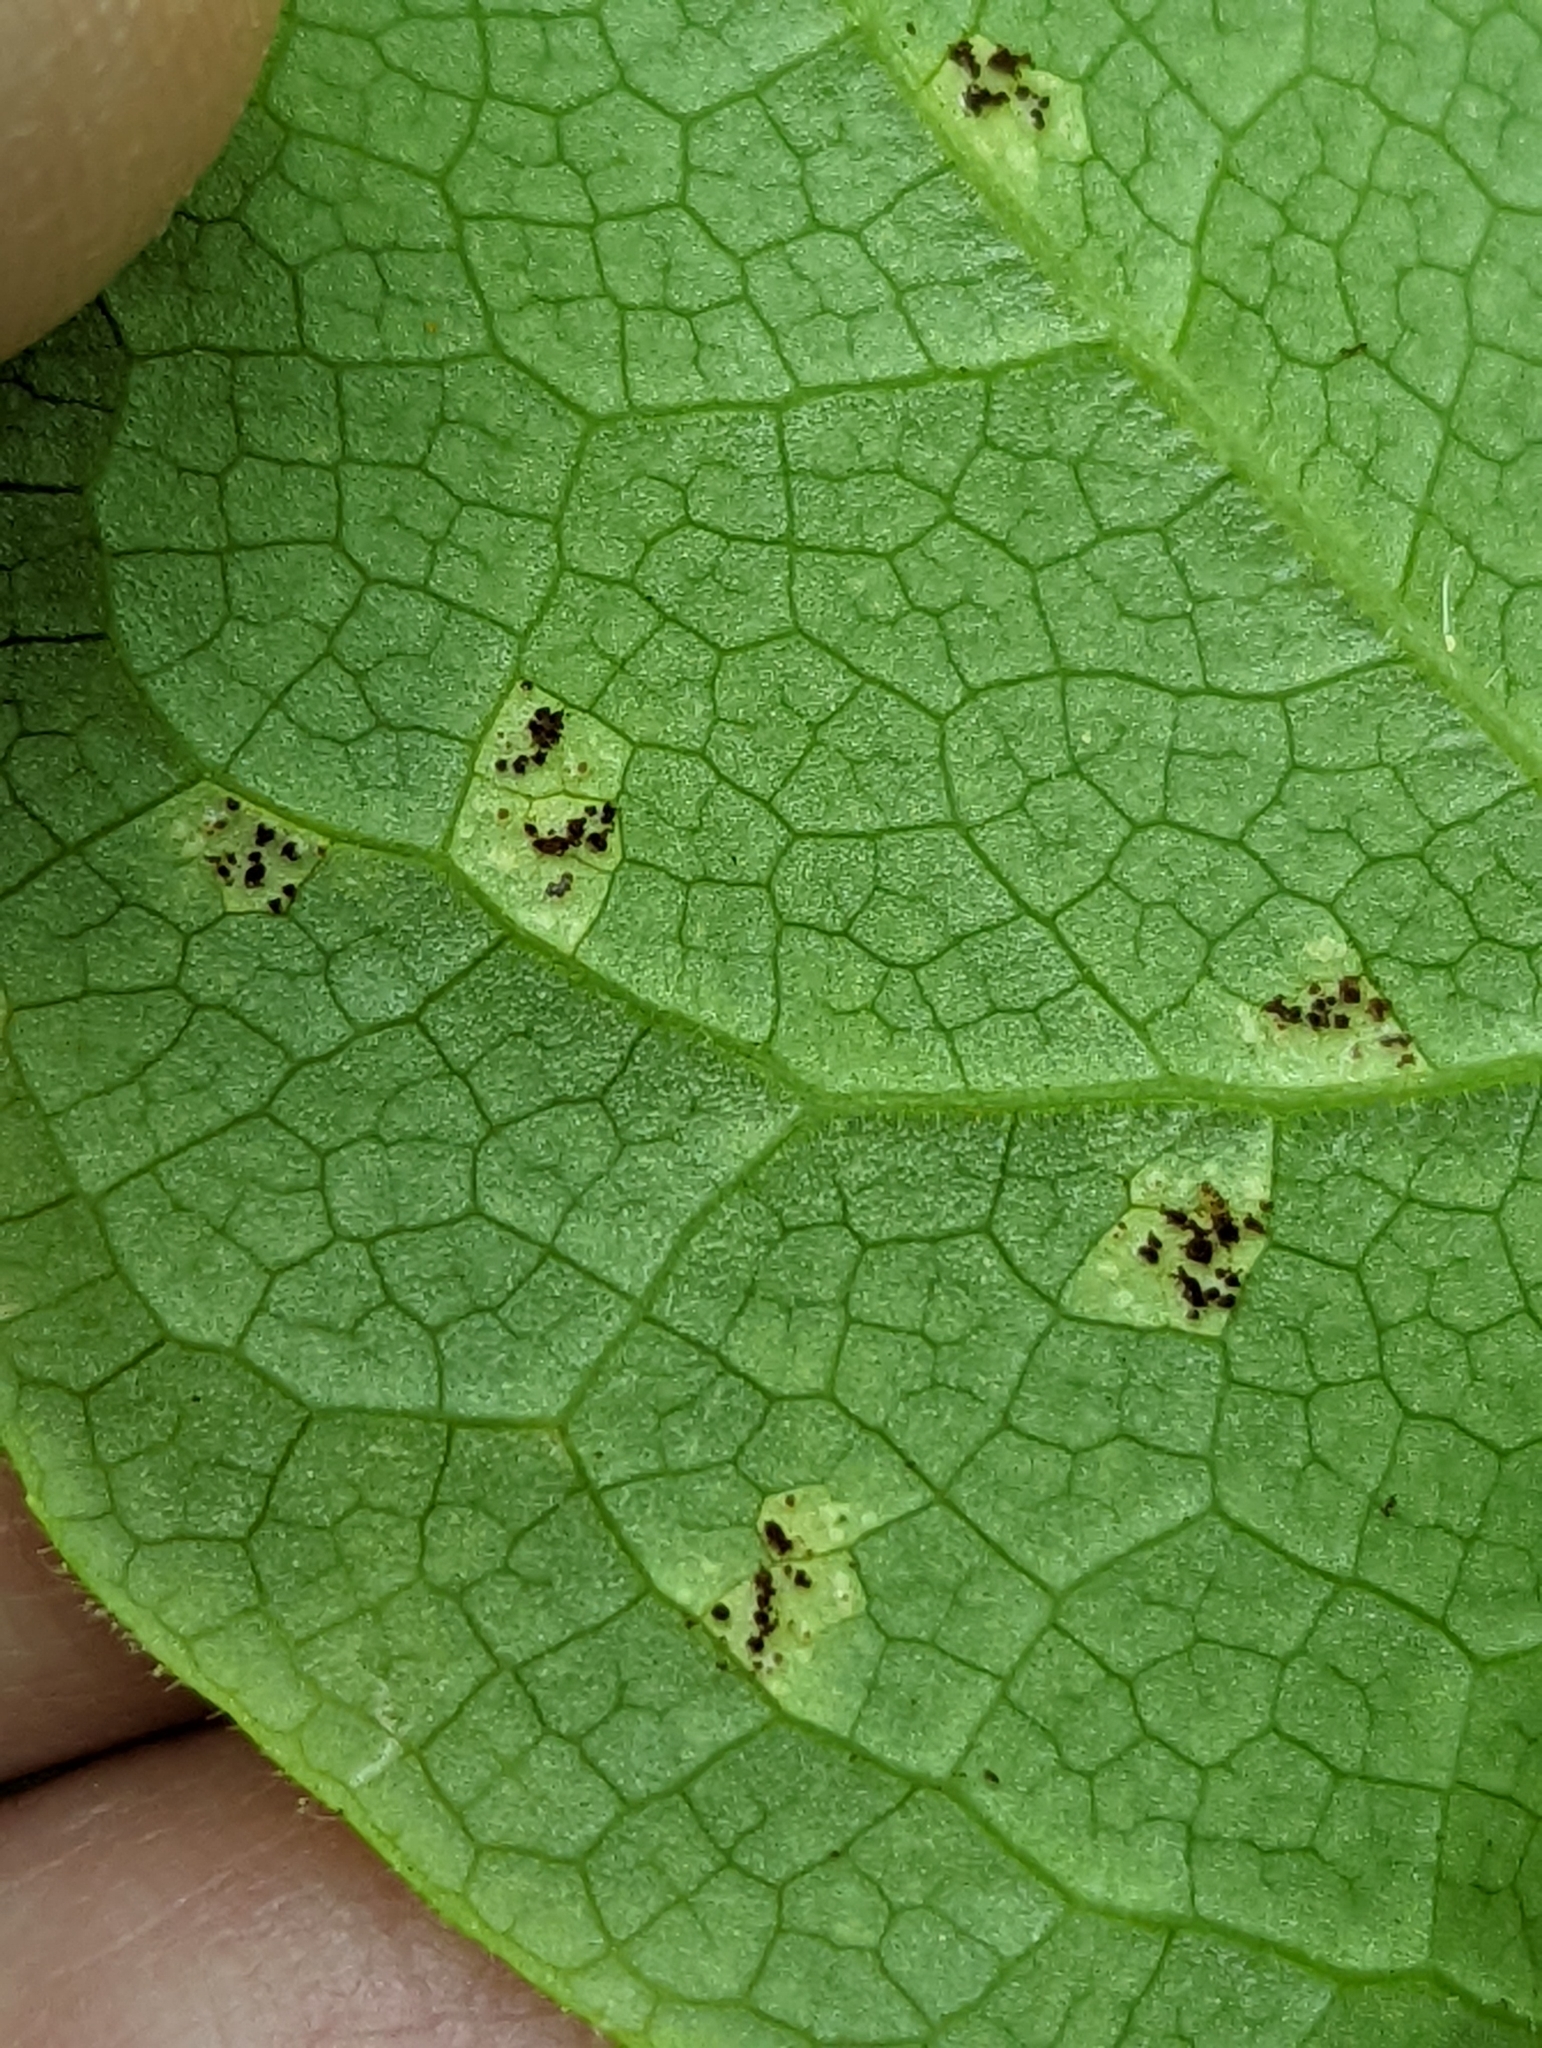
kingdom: Fungi
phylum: Basidiomycota
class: Pucciniomycetes
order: Pucciniales
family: Pucciniaceae
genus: Puccinia
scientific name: Puccinia podophylli
